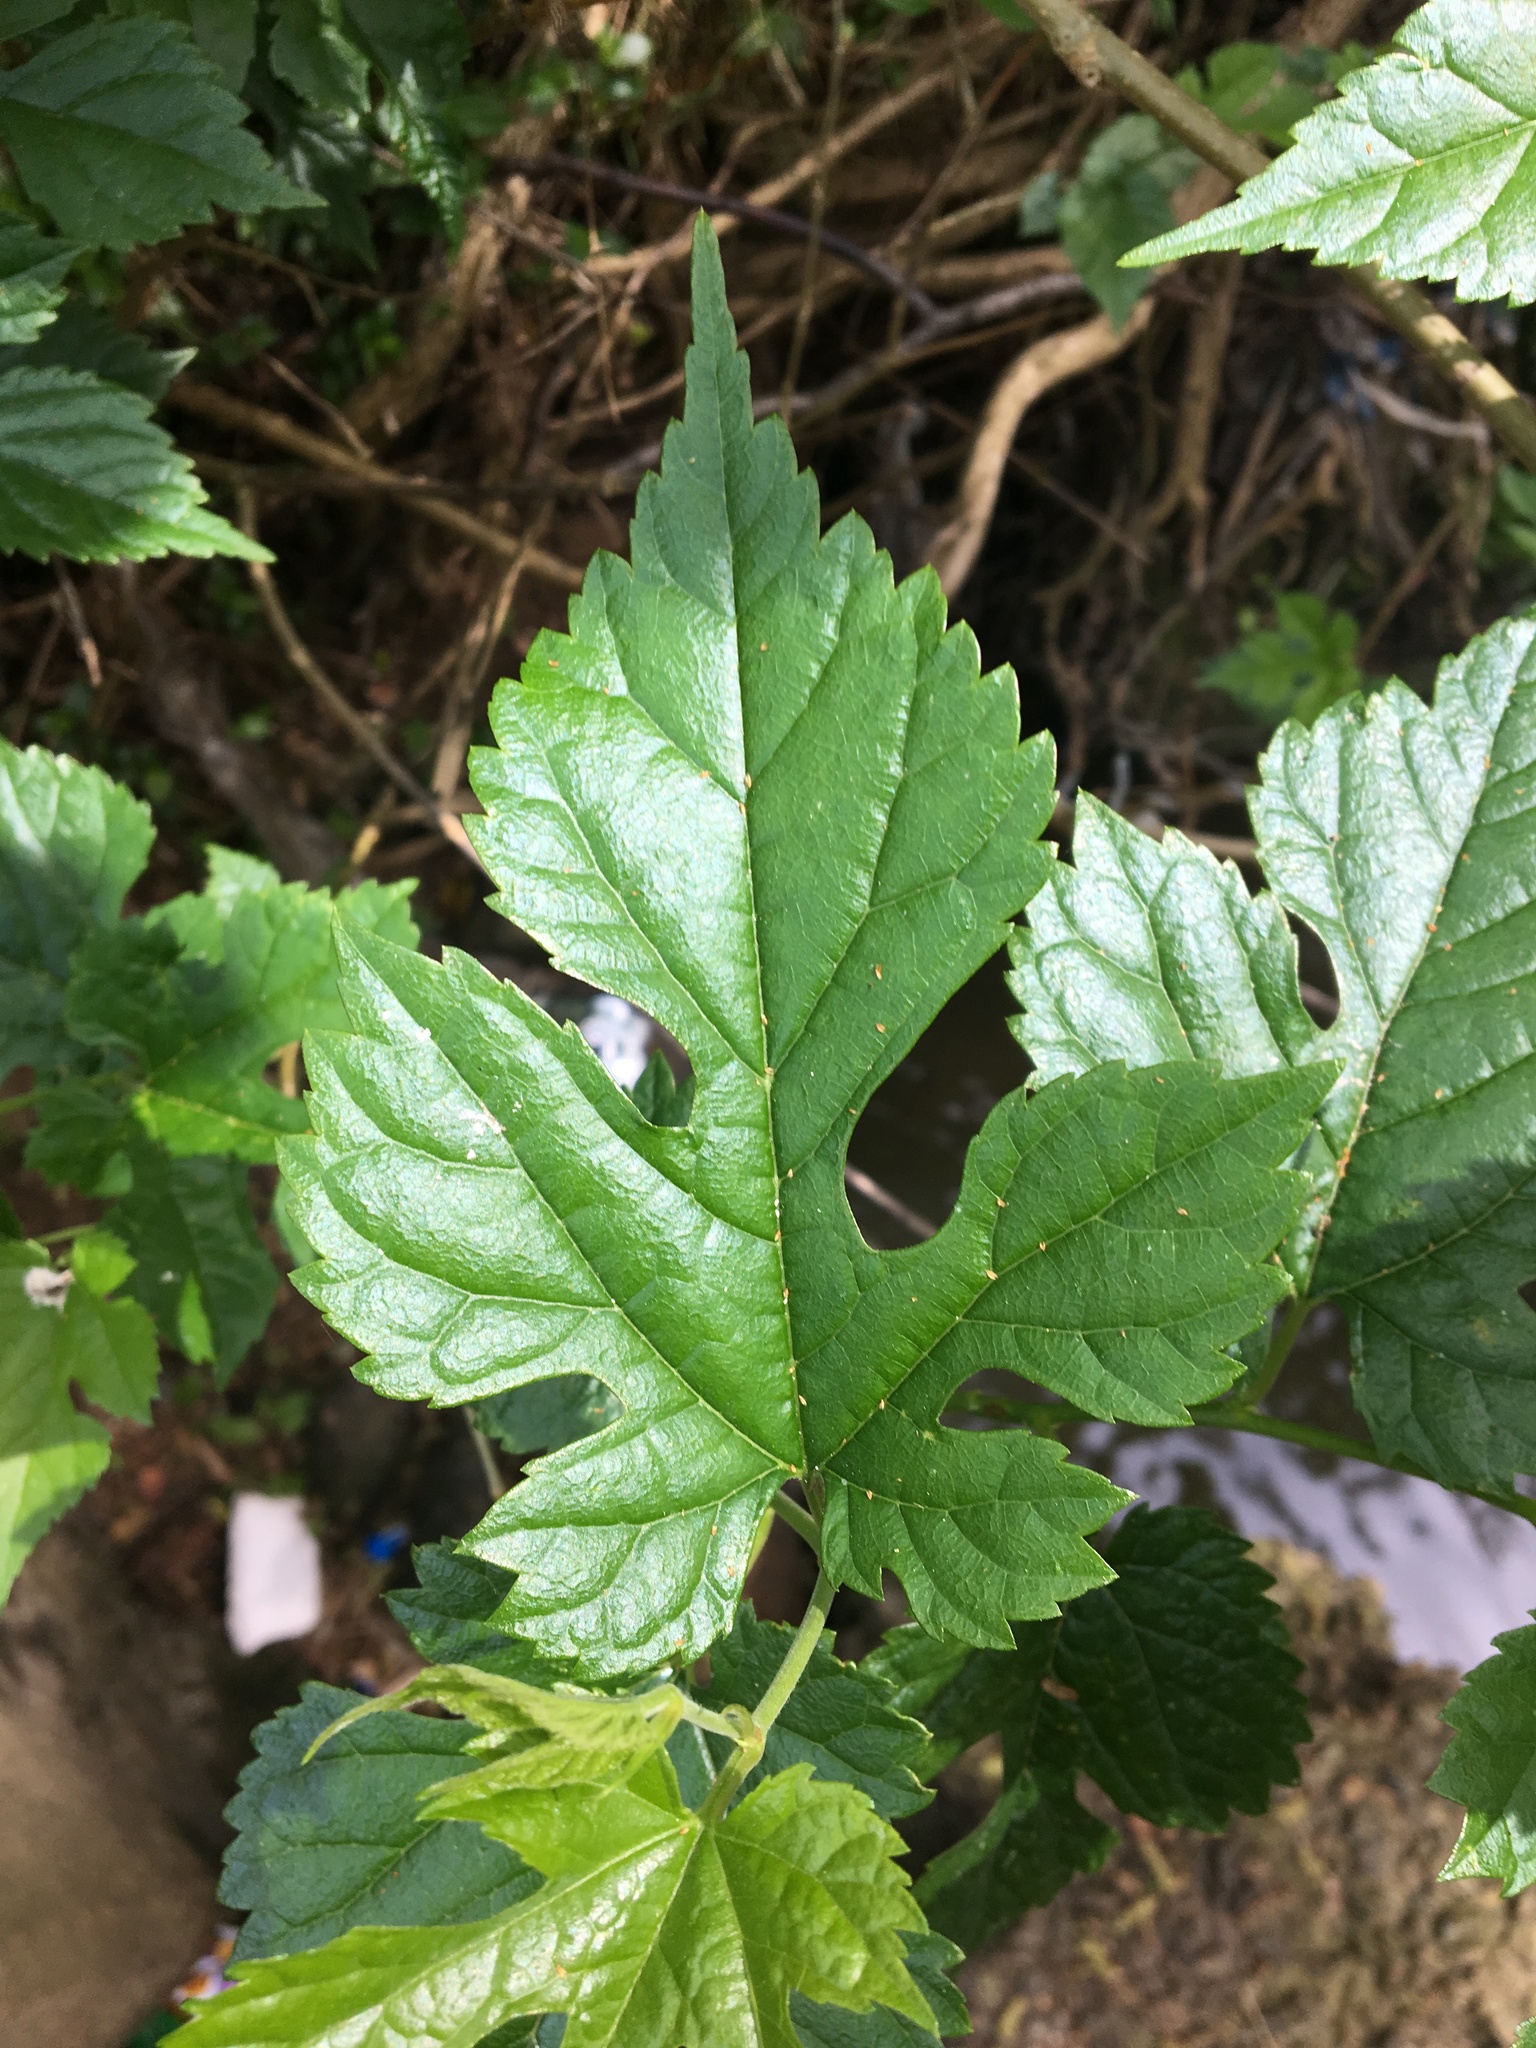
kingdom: Plantae
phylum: Tracheophyta
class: Magnoliopsida
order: Rosales
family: Moraceae
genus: Morus
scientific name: Morus alba
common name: White mulberry
